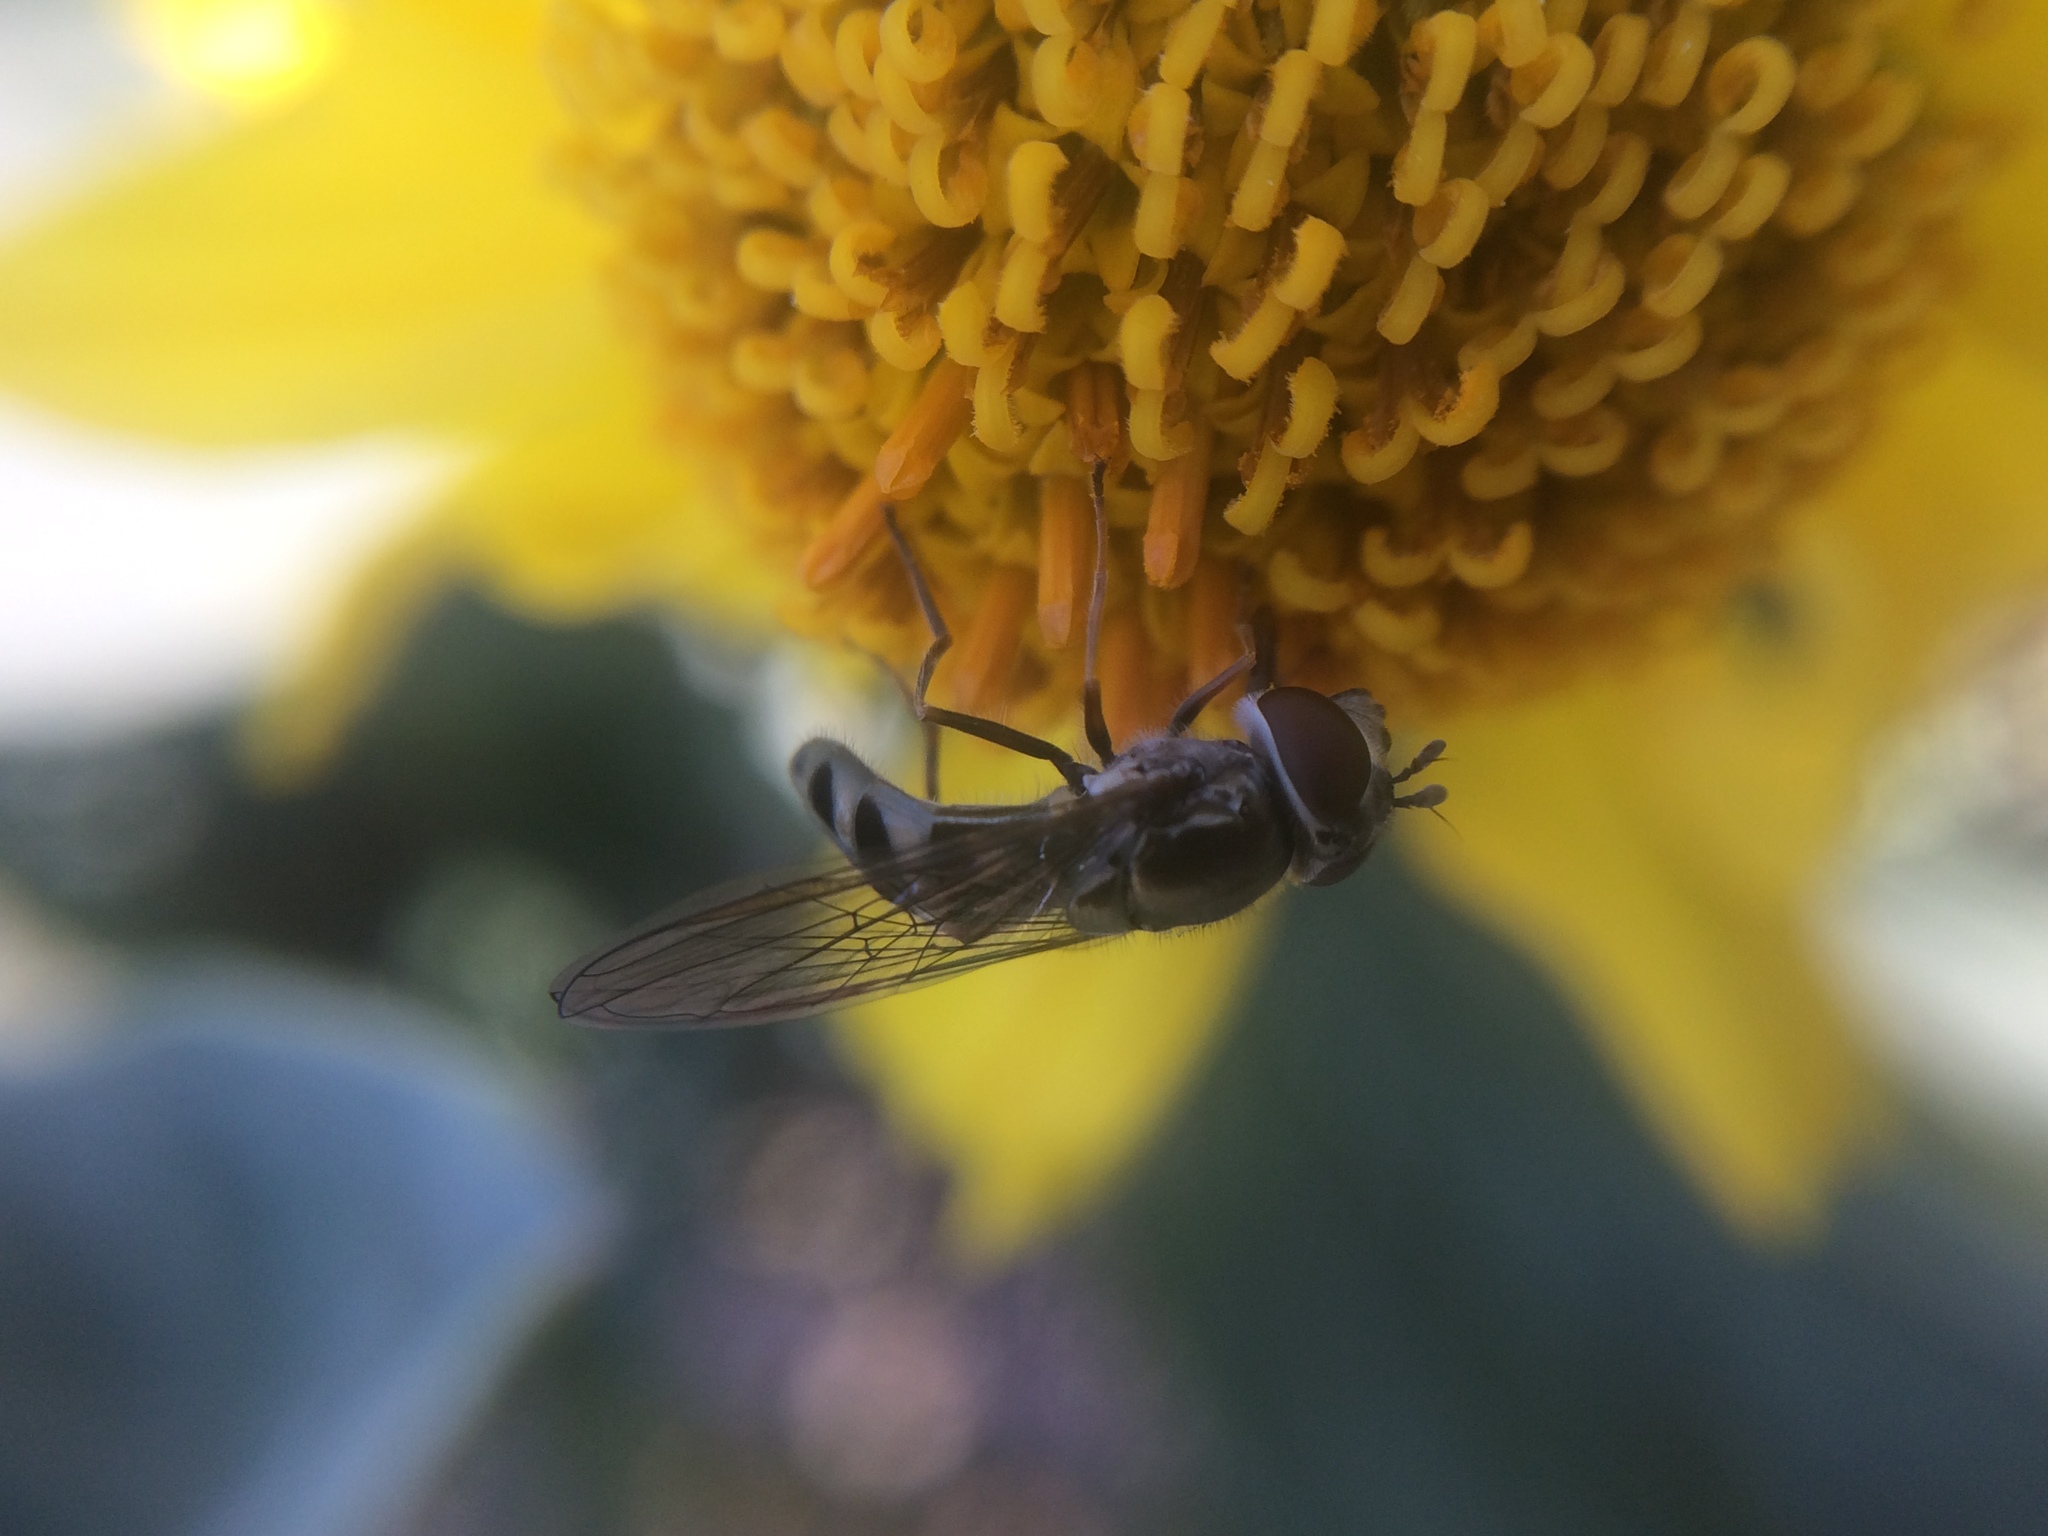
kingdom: Animalia
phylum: Arthropoda
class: Insecta
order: Diptera
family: Syrphidae
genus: Platycheirus
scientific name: Platycheirus trichopus
